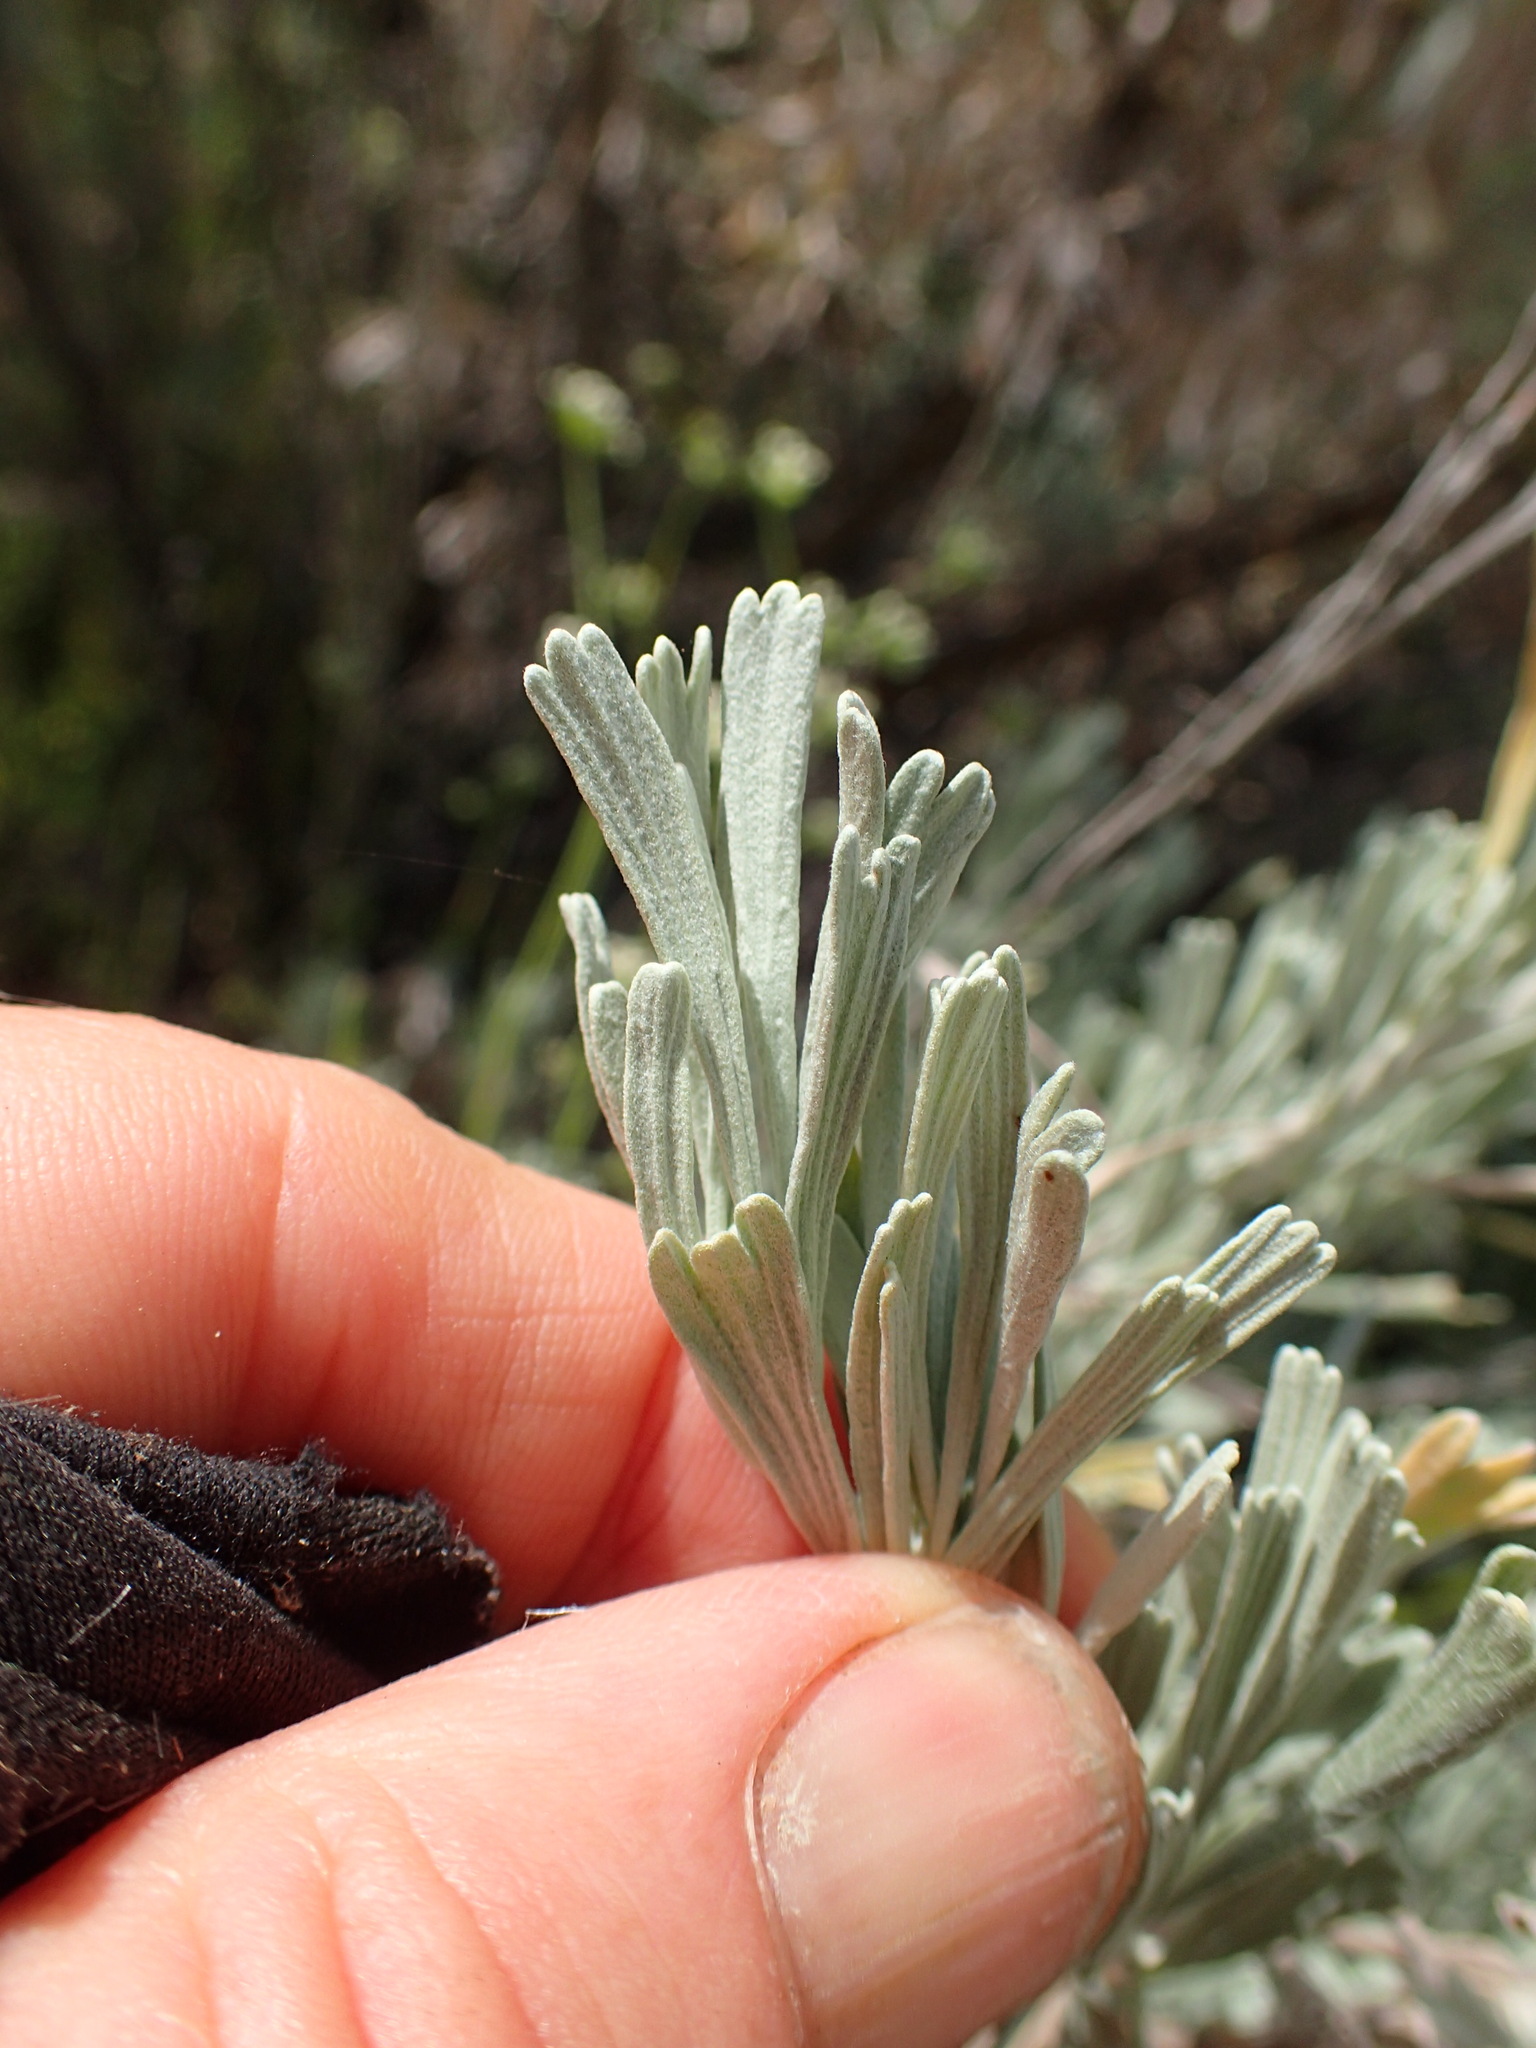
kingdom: Plantae
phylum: Tracheophyta
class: Magnoliopsida
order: Asterales
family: Asteraceae
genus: Artemisia
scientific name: Artemisia tridentata
